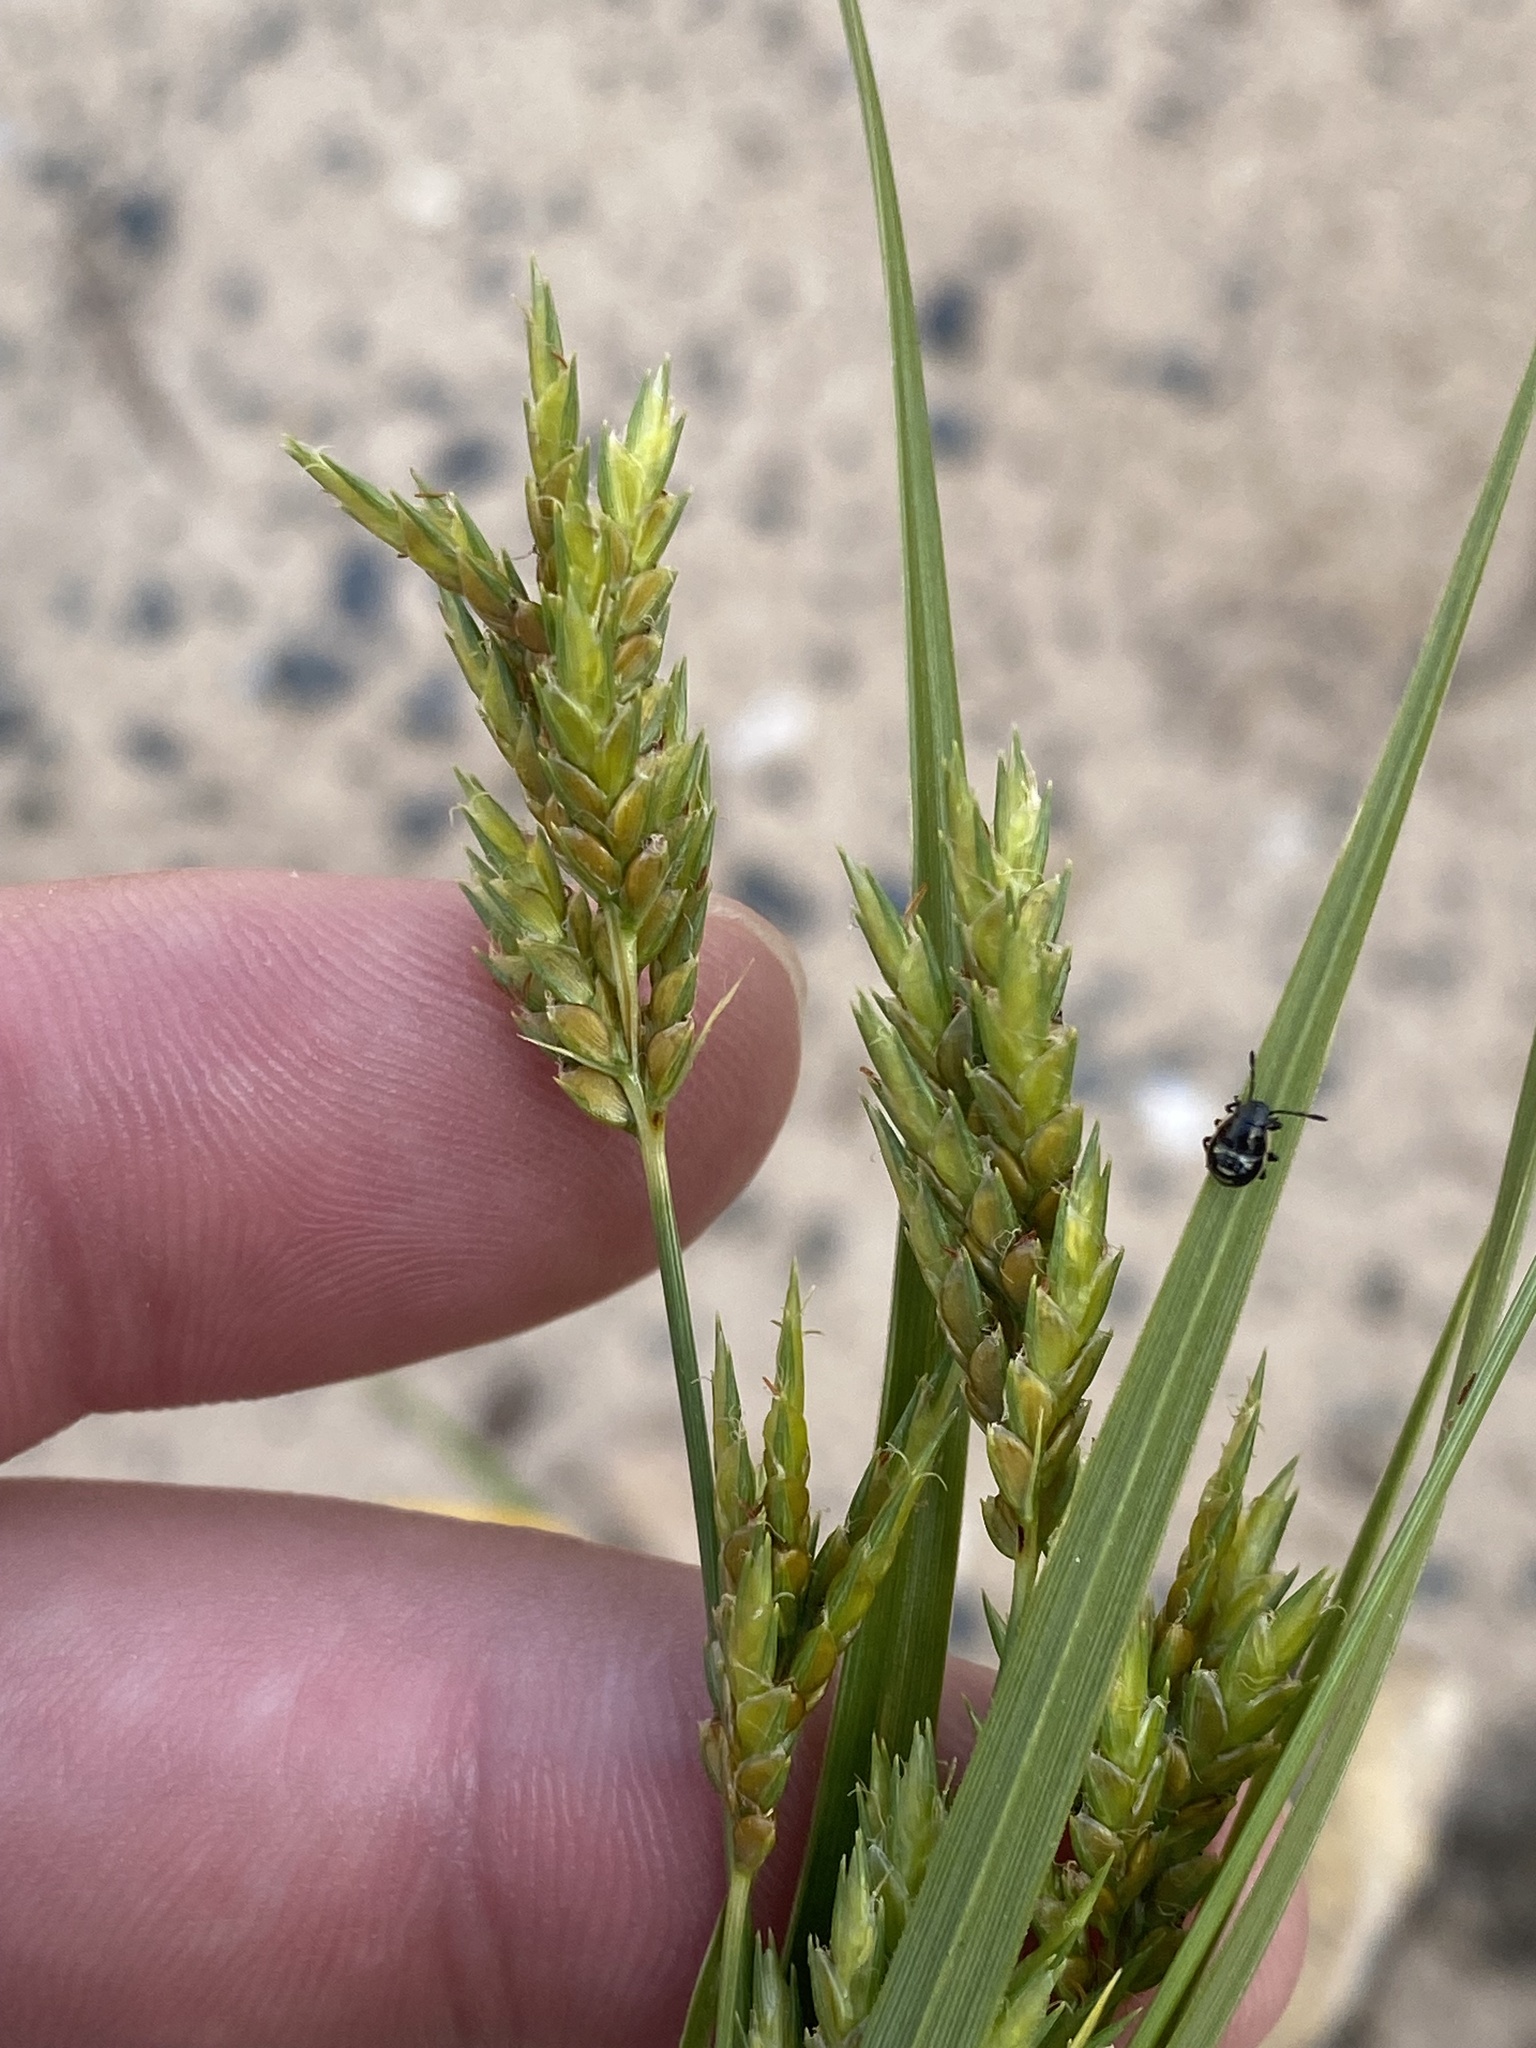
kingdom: Plantae
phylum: Tracheophyta
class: Liliopsida
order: Poales
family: Cyperaceae
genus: Cyperus
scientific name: Cyperus schweinitzii
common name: Schweinitz's cyperus
